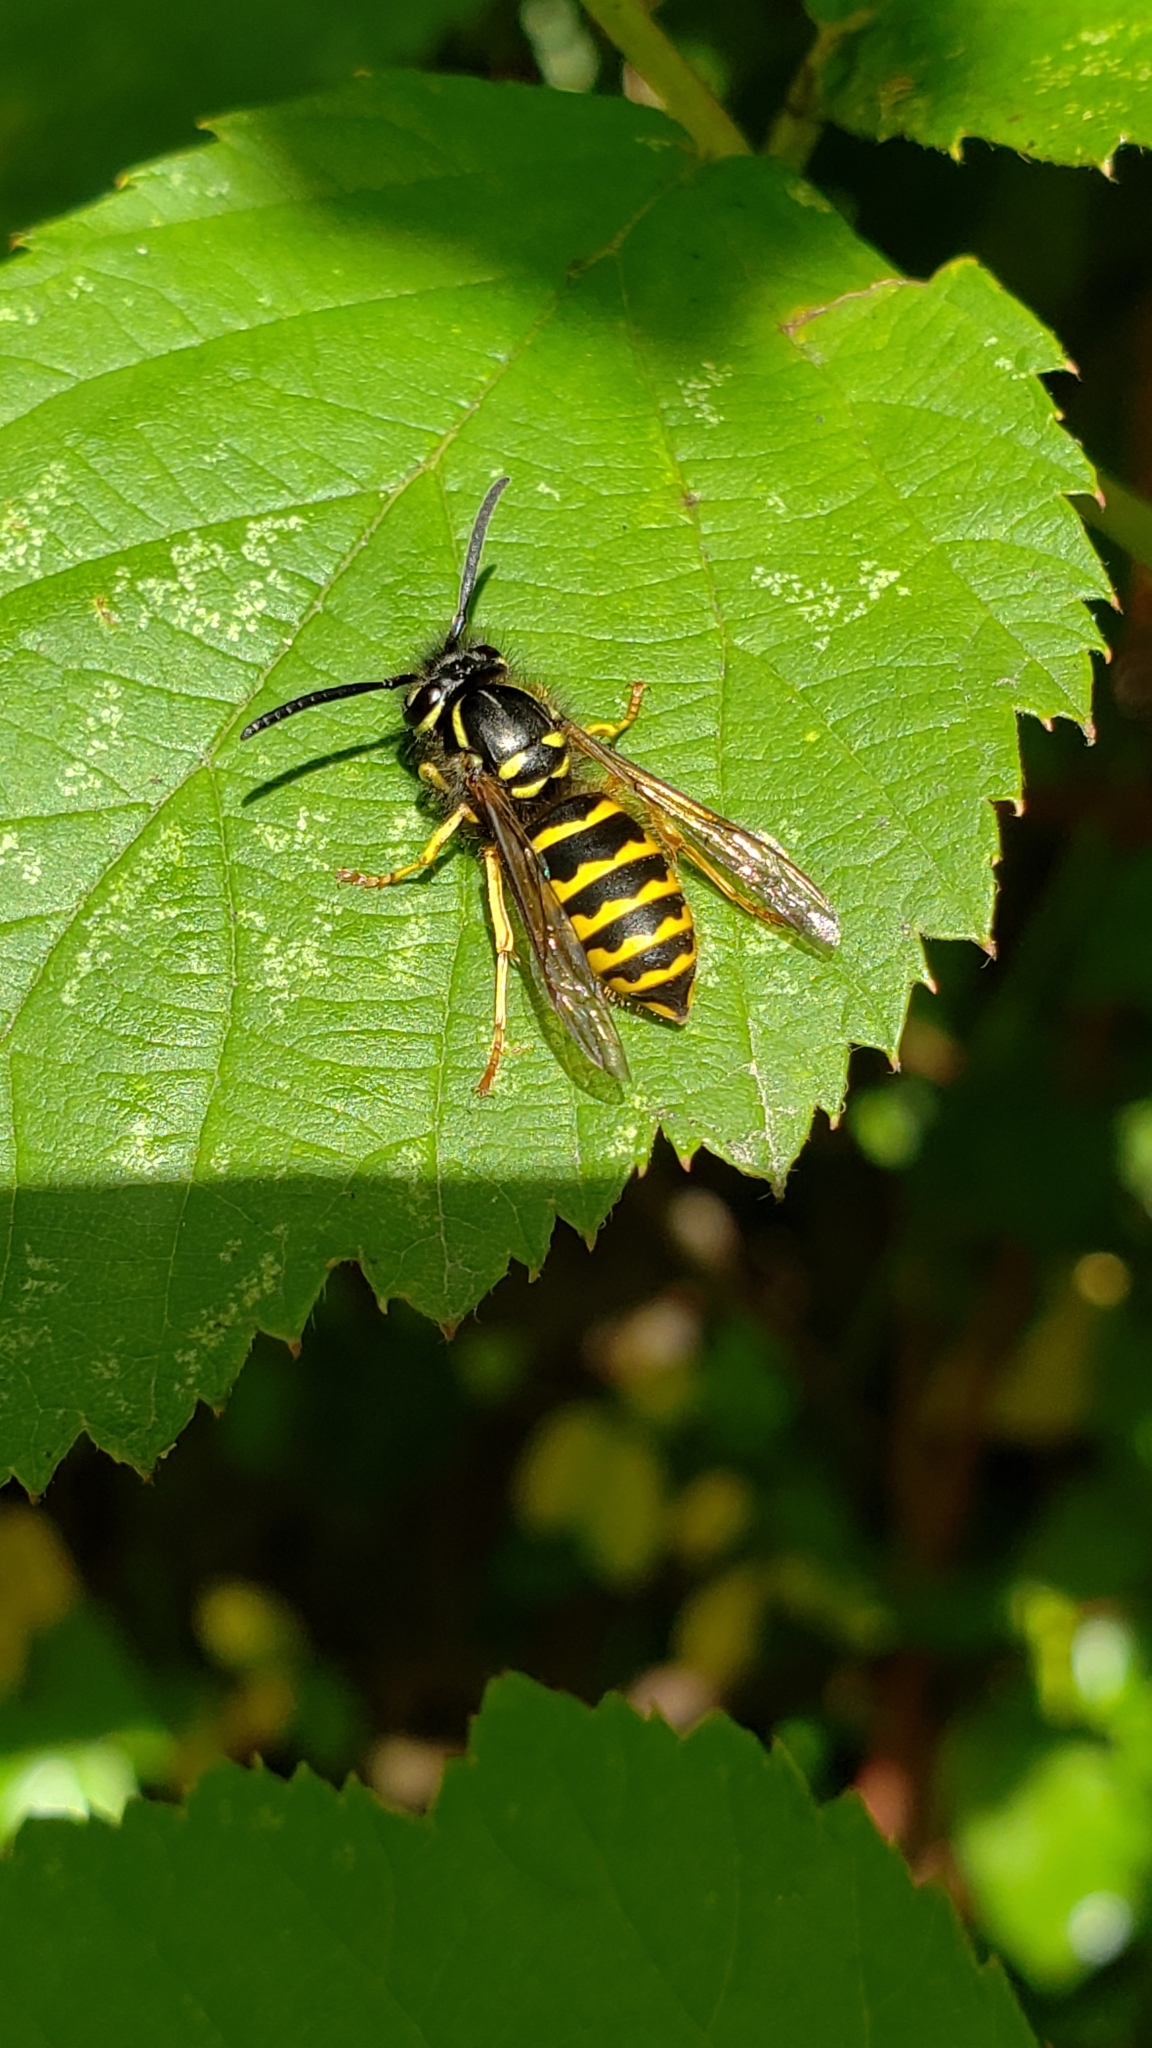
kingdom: Animalia
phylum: Arthropoda
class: Insecta
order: Hymenoptera
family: Vespidae
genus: Vespula
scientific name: Vespula alascensis
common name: Alaska yellowjacket
